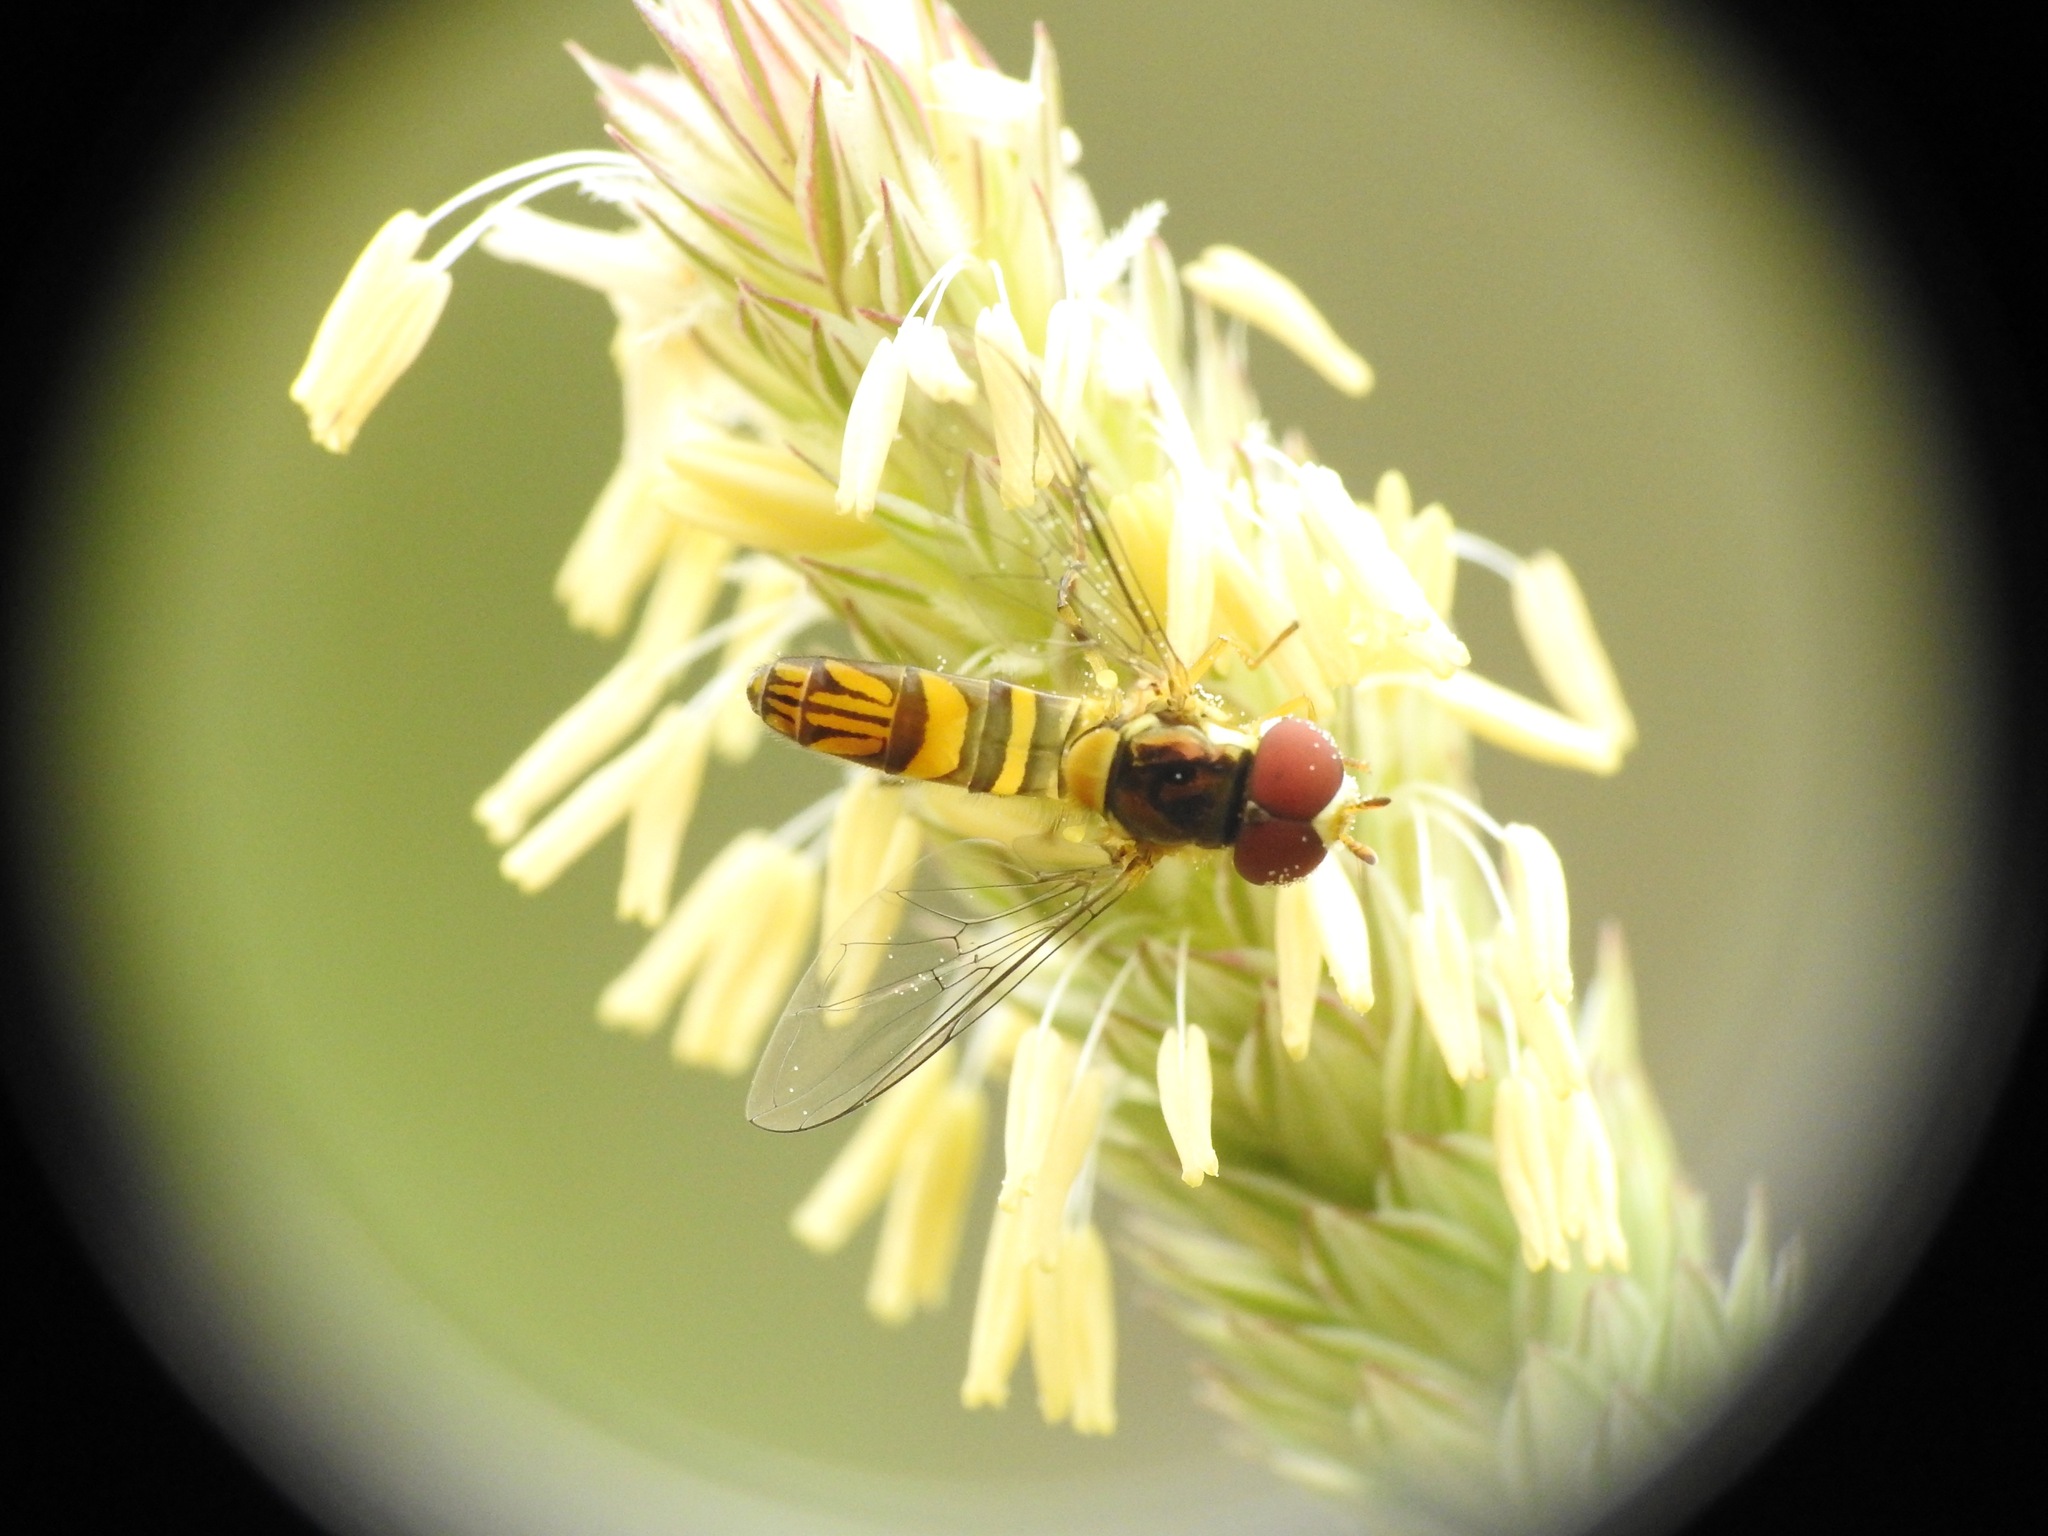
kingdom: Animalia
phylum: Arthropoda
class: Insecta
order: Diptera
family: Syrphidae
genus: Allograpta
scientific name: Allograpta obliqua
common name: Common oblique syrphid
